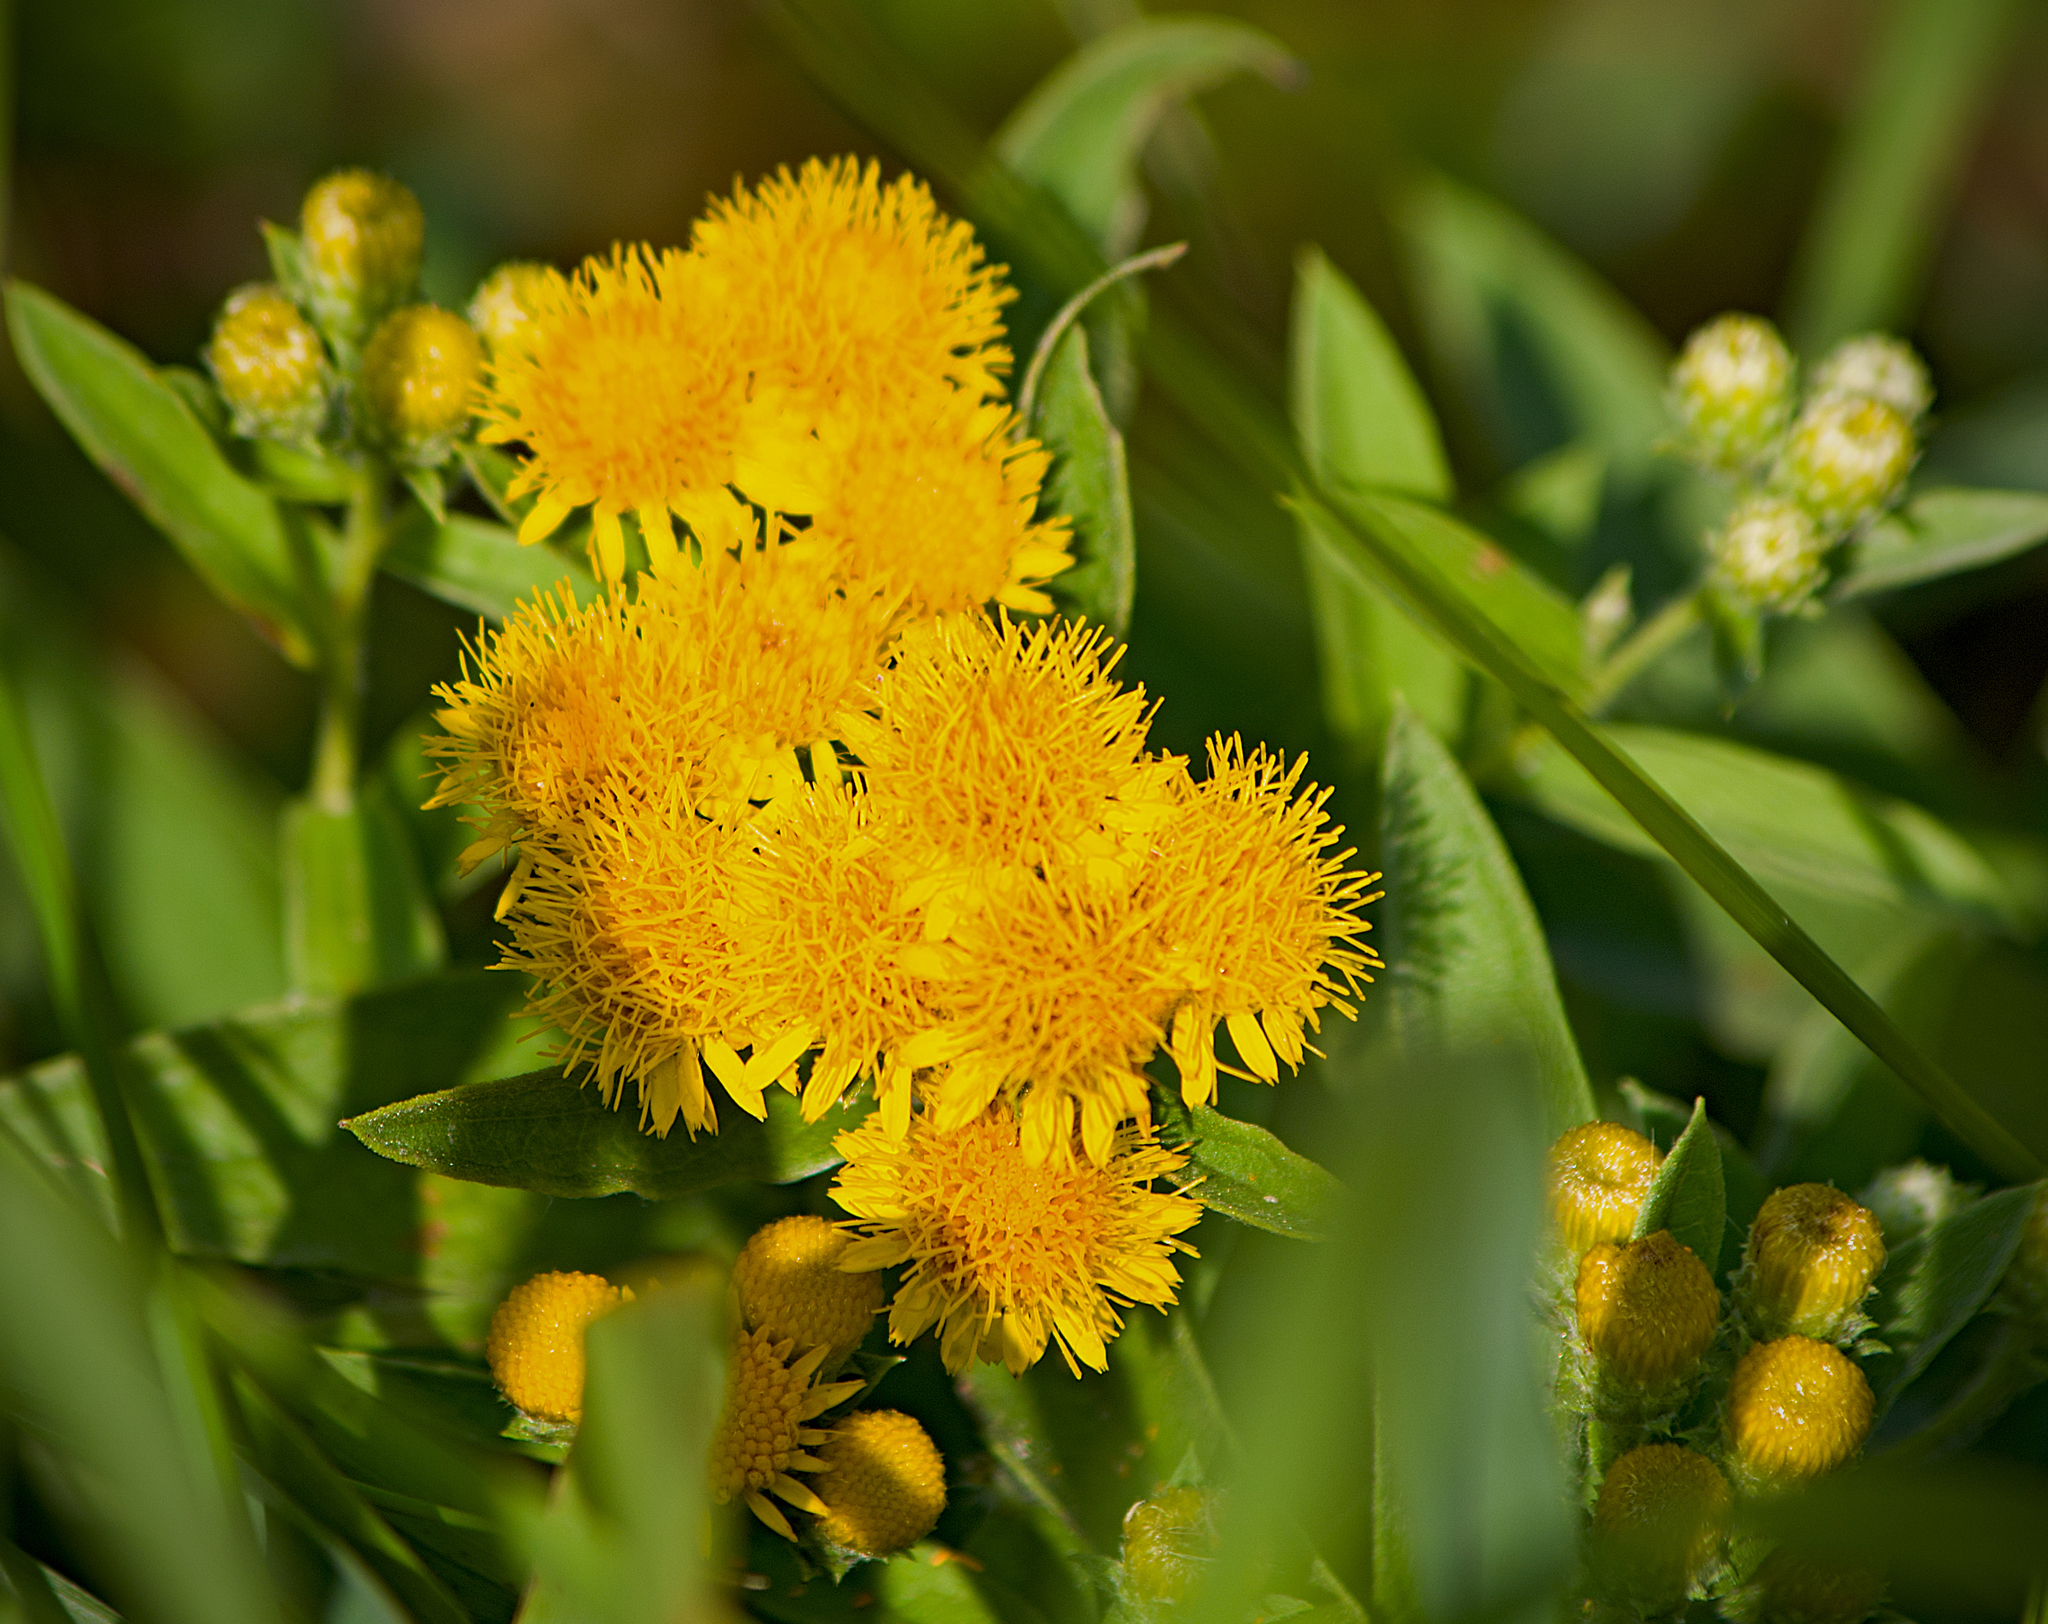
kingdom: Plantae
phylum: Tracheophyta
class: Magnoliopsida
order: Asterales
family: Asteraceae
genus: Pentanema
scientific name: Pentanema germanicum
